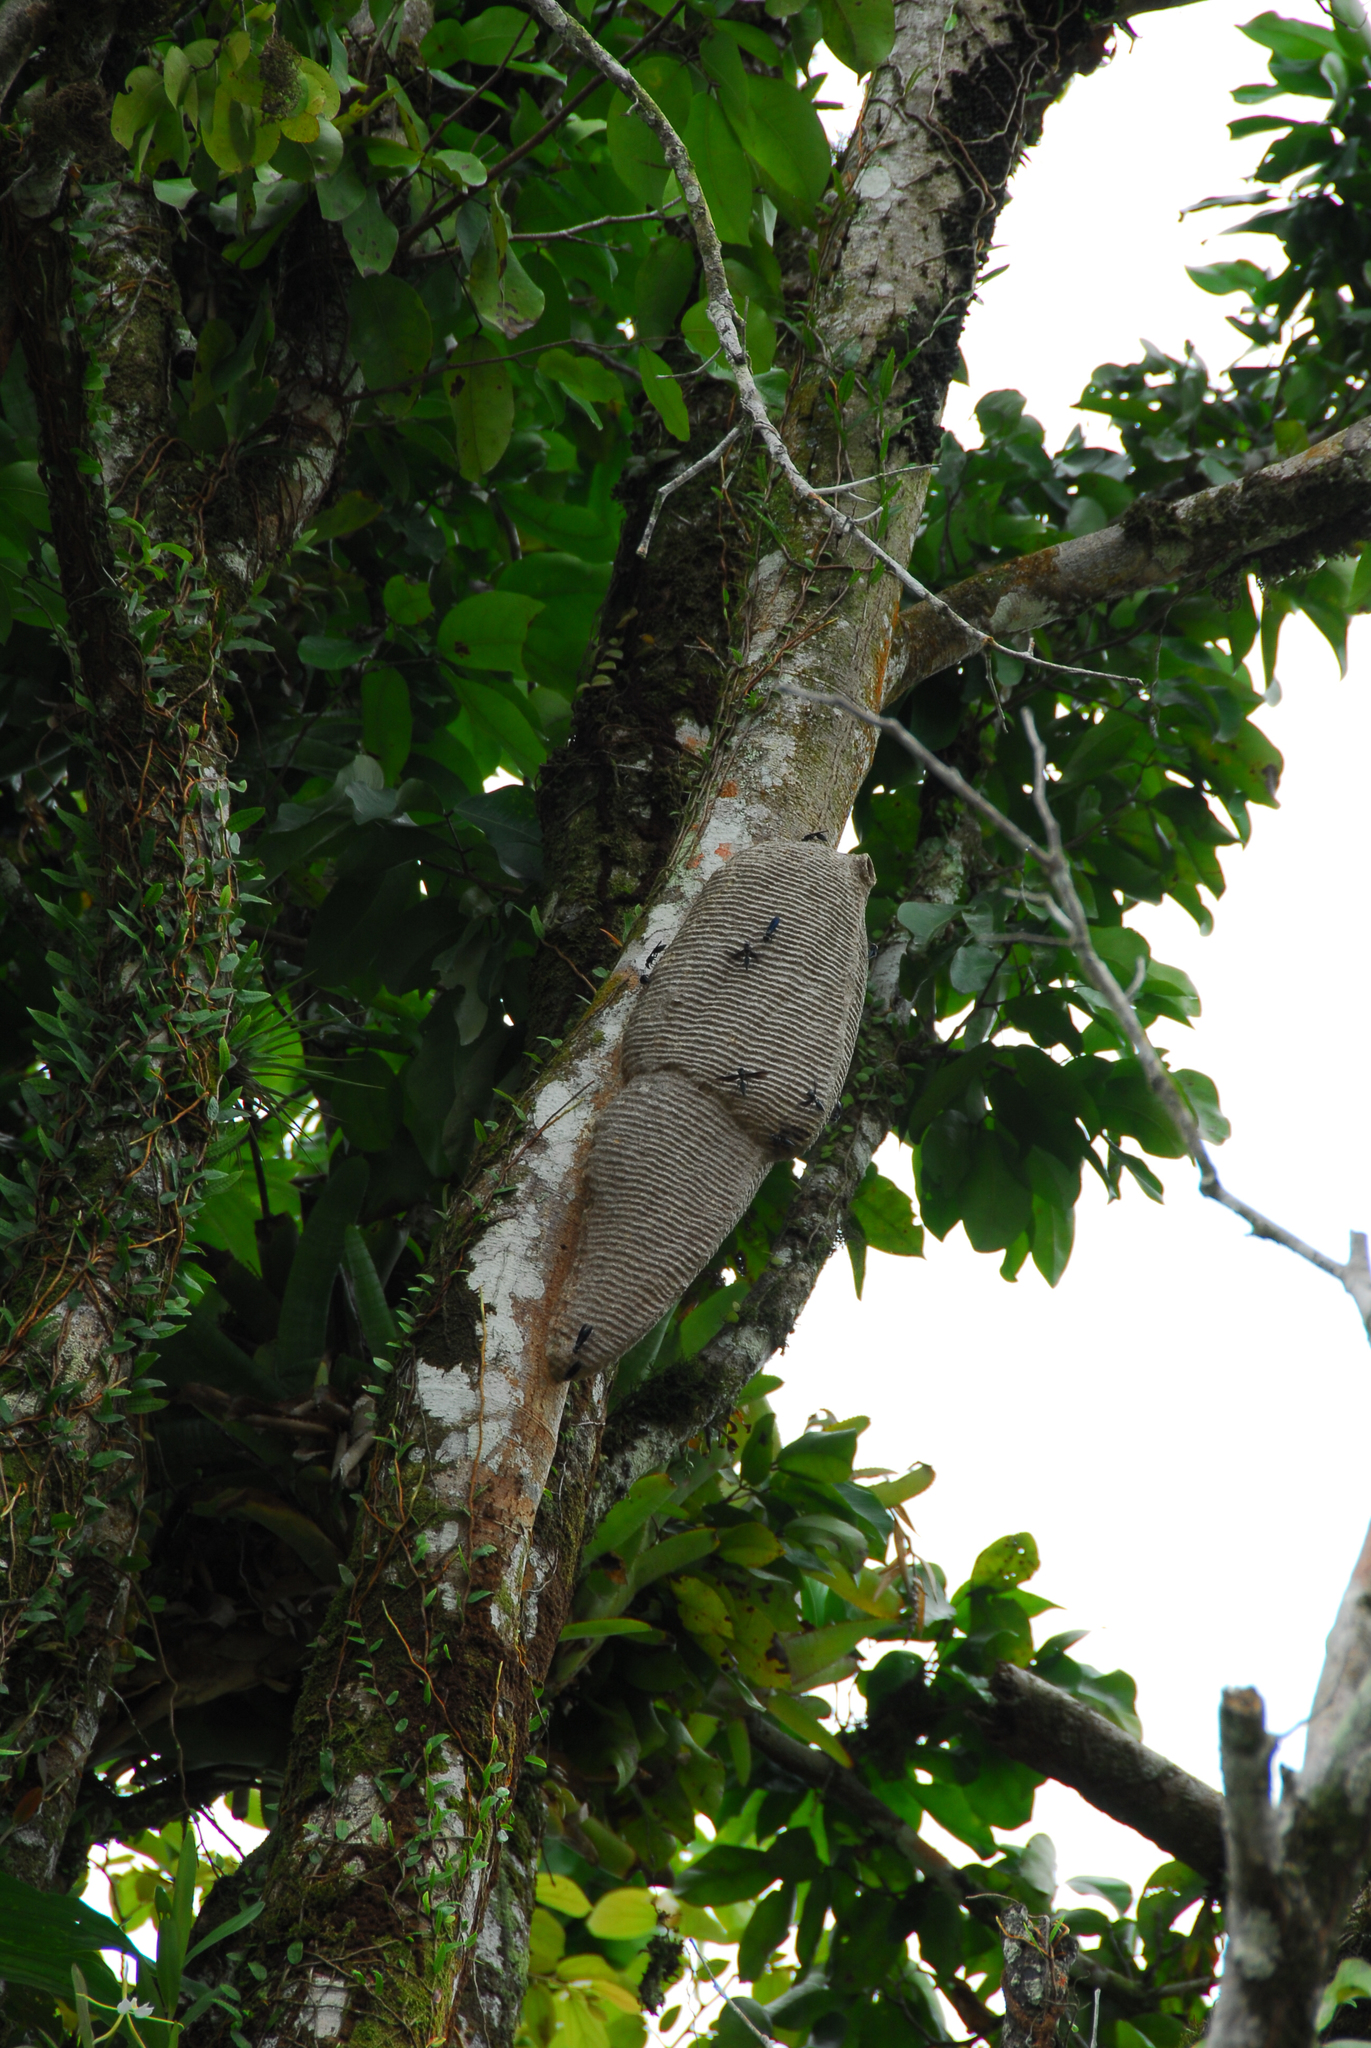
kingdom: Animalia
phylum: Arthropoda
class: Insecta
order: Hymenoptera
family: Vespidae
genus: Synoeca
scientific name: Synoeca septentrionalis
